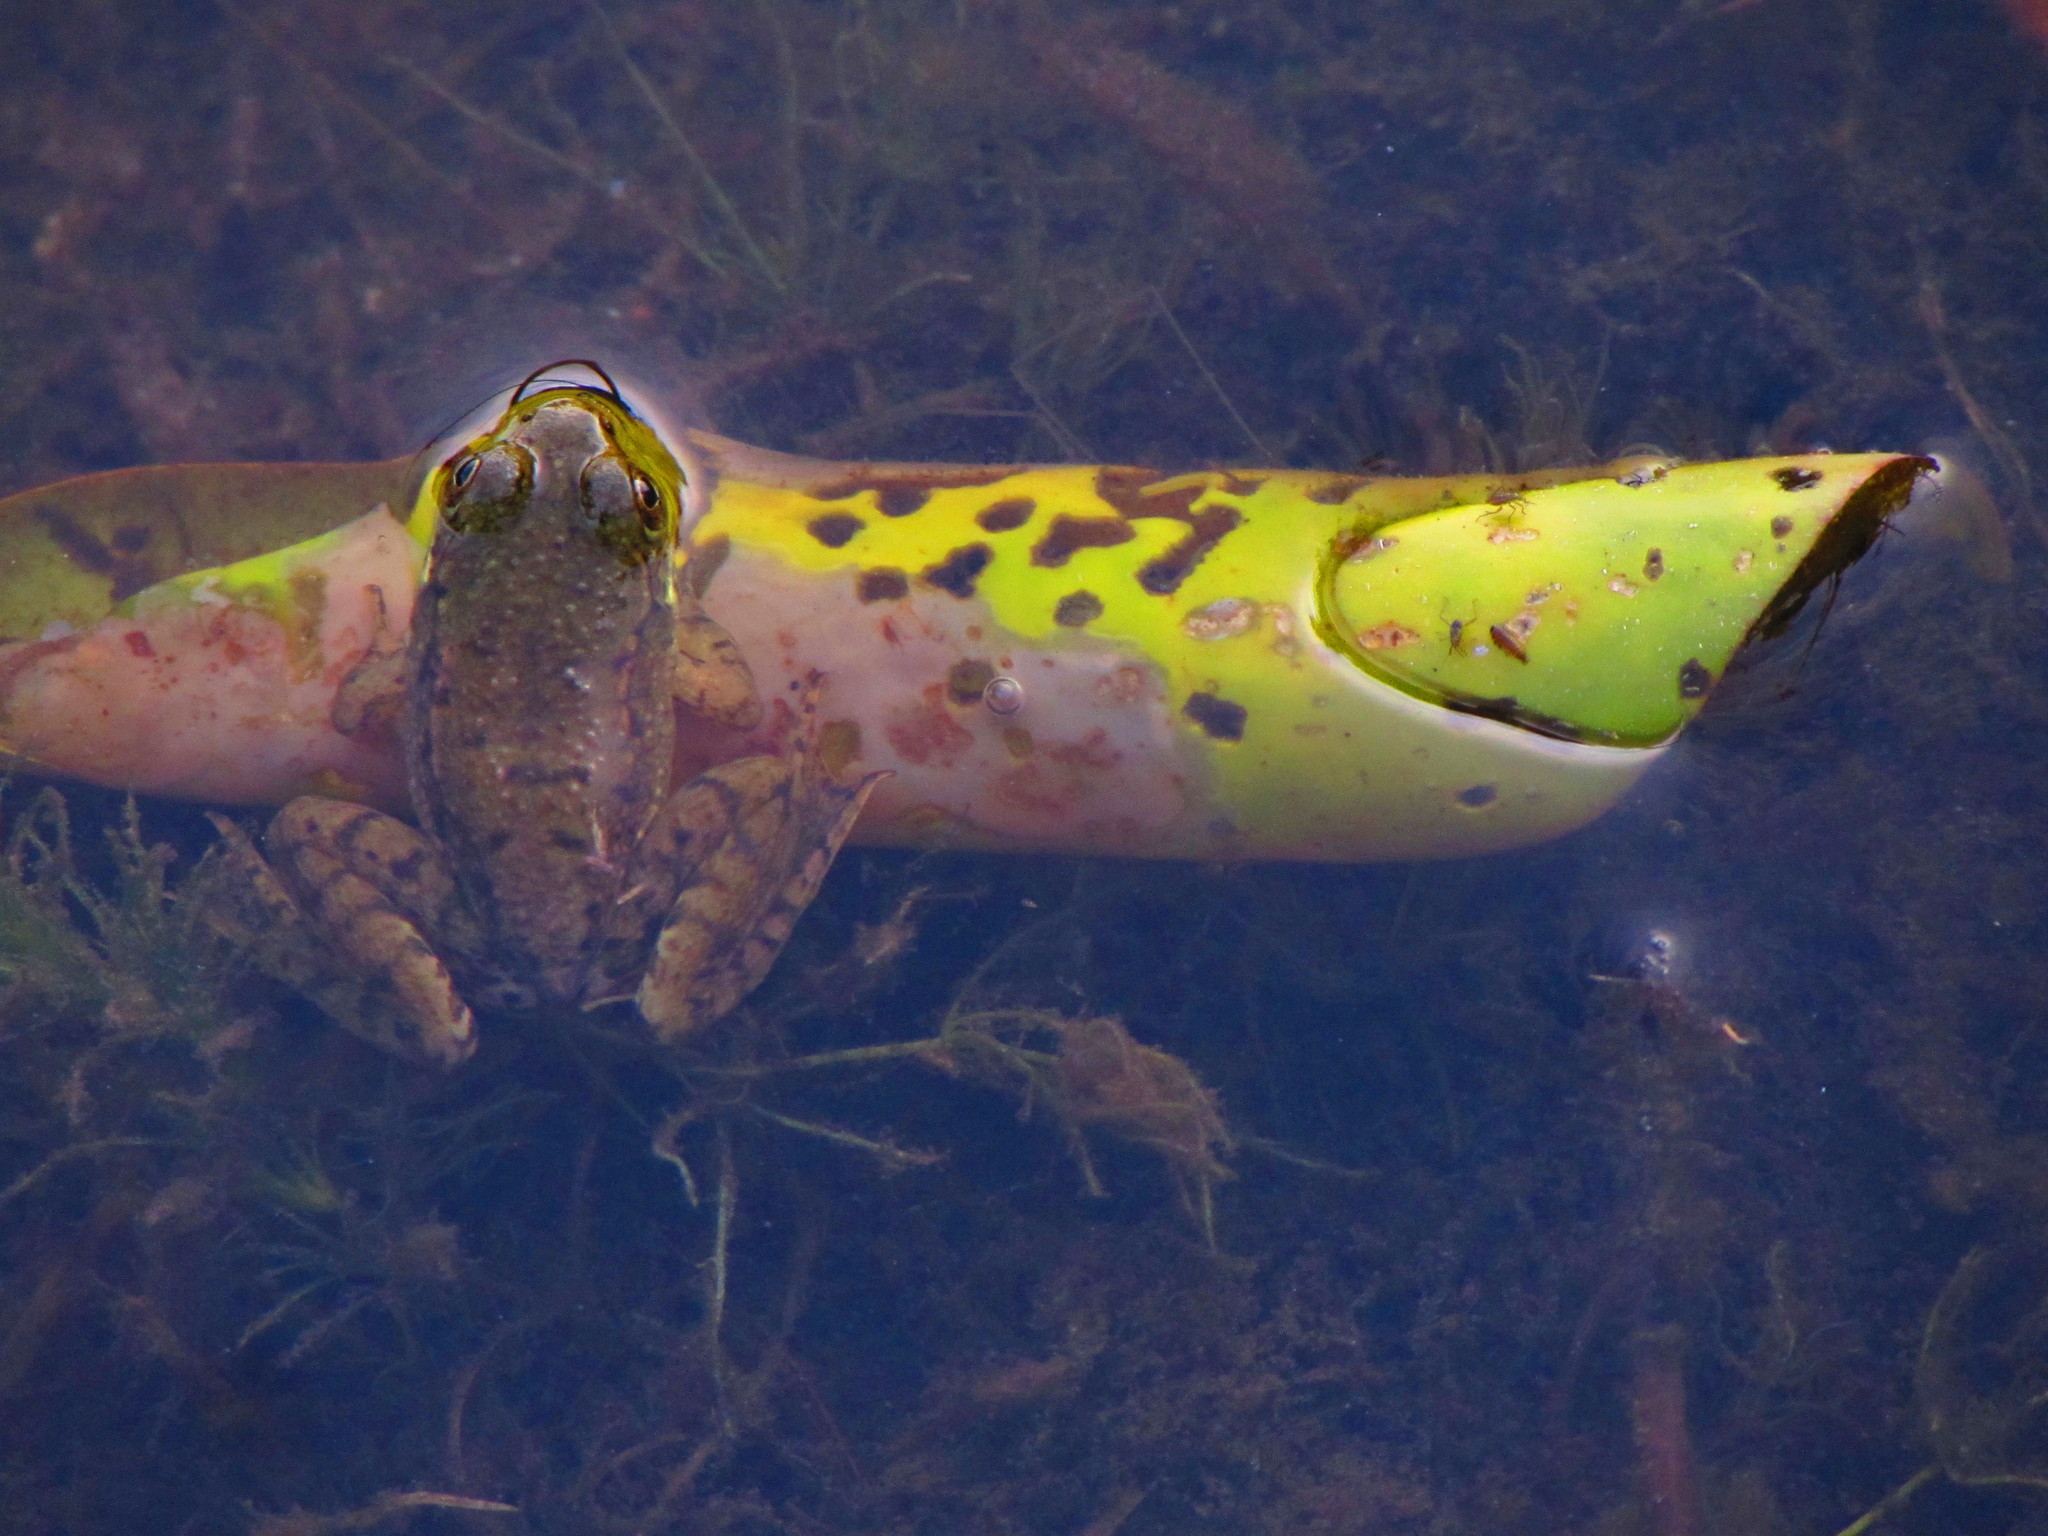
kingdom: Animalia
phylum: Chordata
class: Amphibia
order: Anura
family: Ranidae
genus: Lithobates
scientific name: Lithobates clamitans
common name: Green frog
